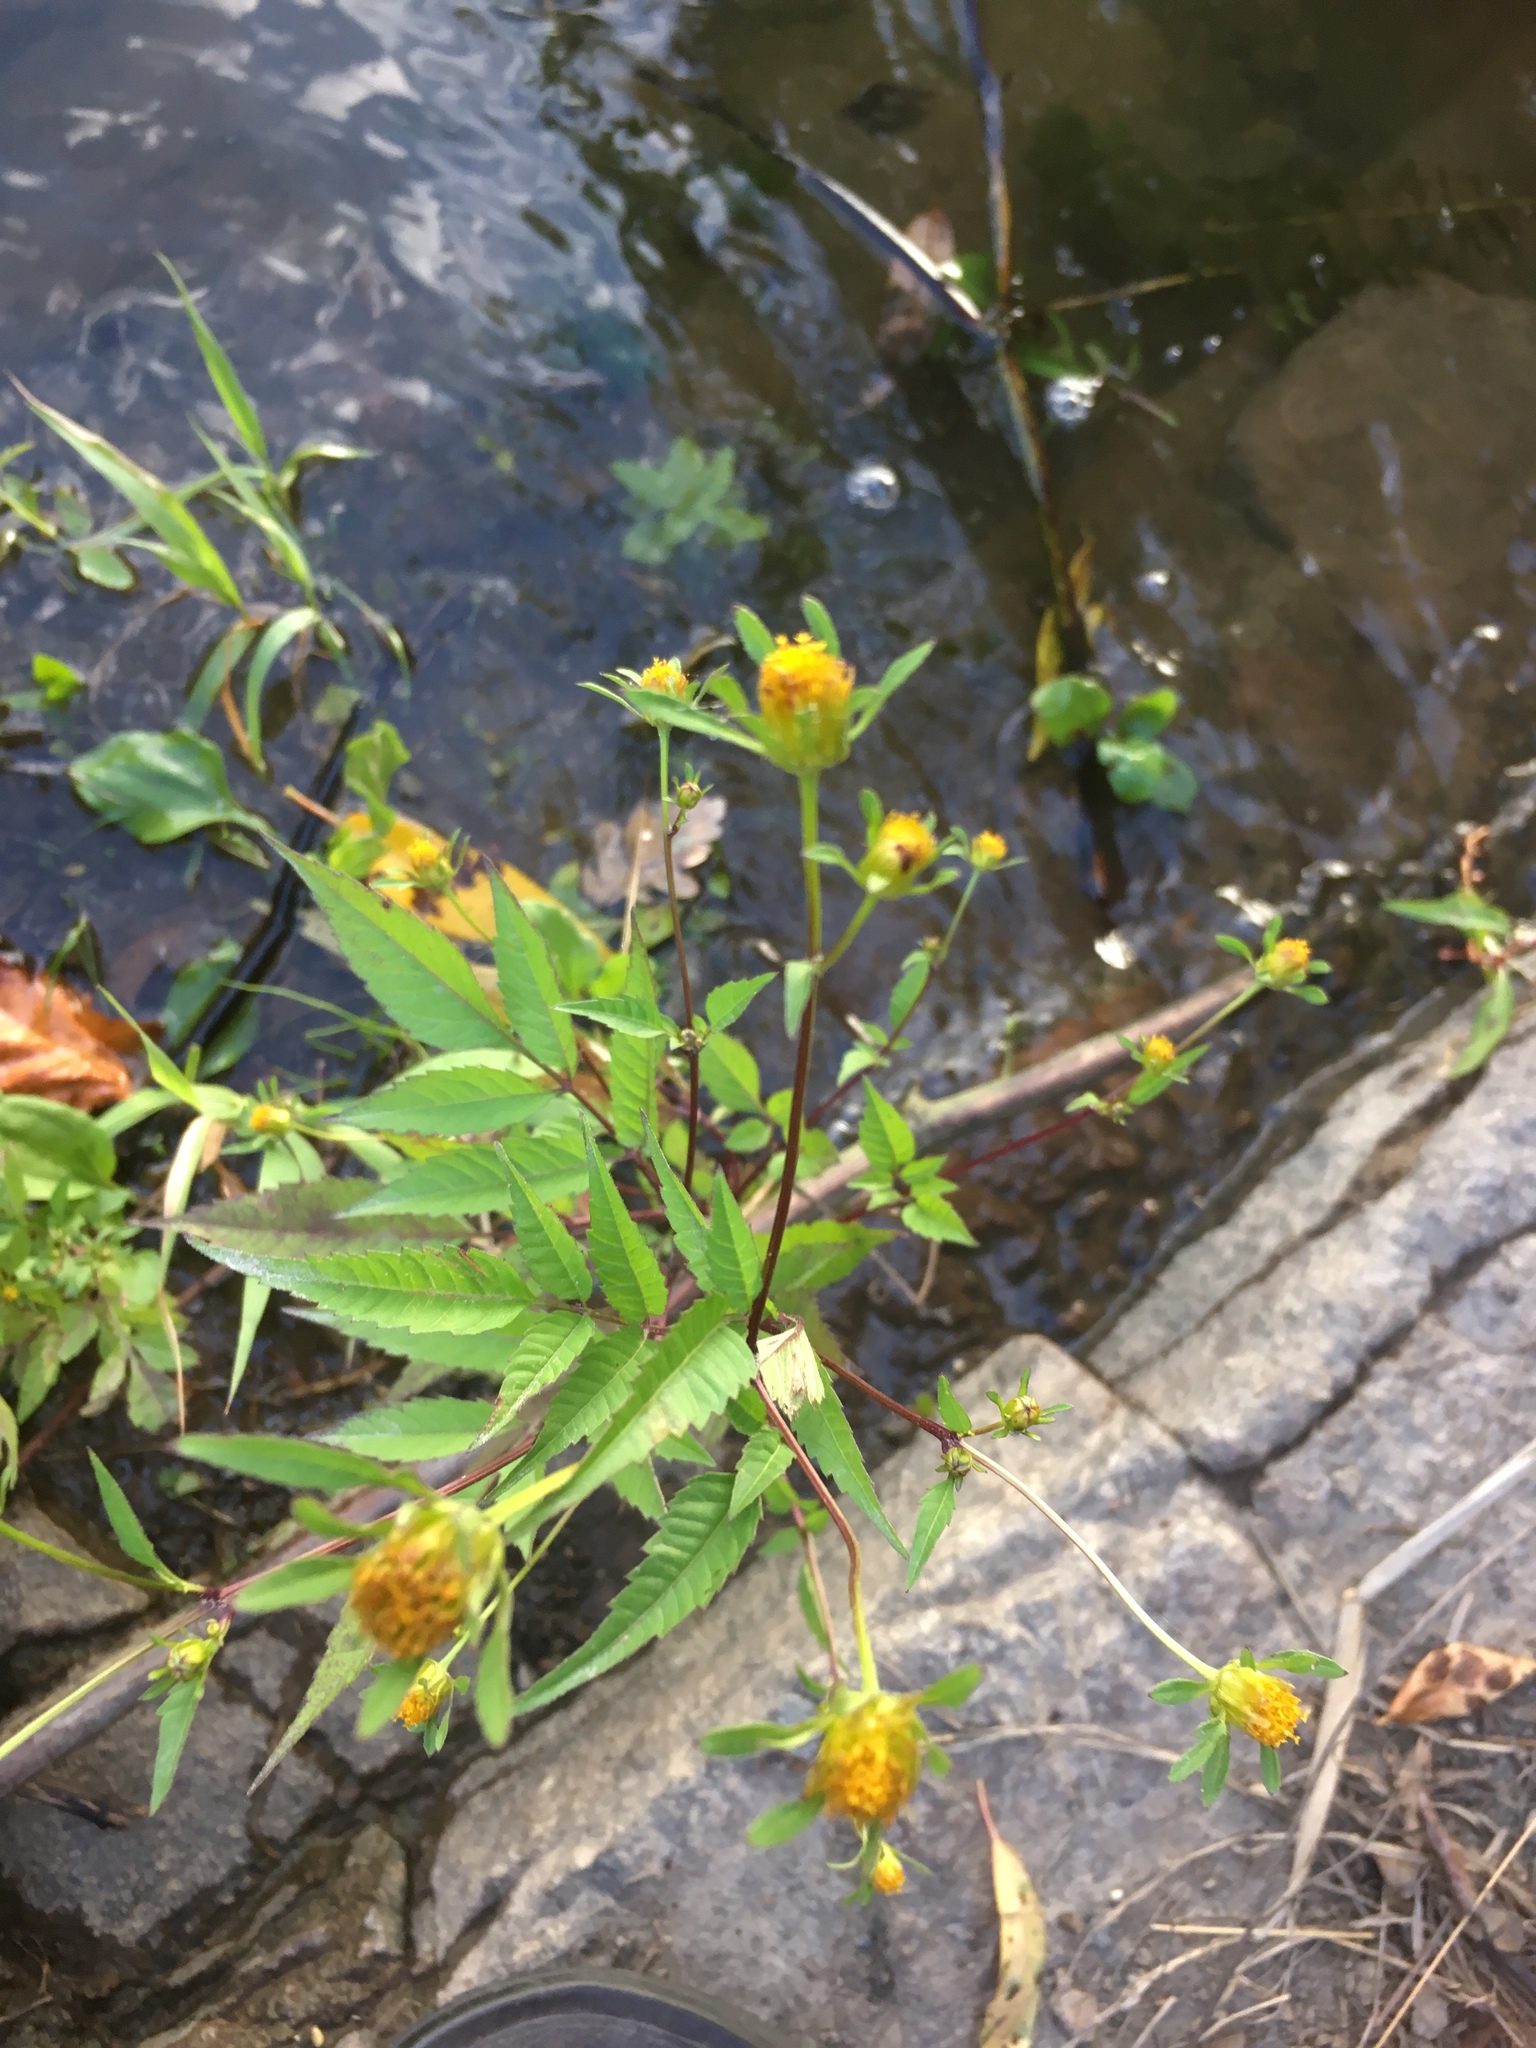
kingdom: Plantae
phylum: Tracheophyta
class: Magnoliopsida
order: Asterales
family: Asteraceae
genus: Bidens
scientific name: Bidens frondosa
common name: Beggarticks
